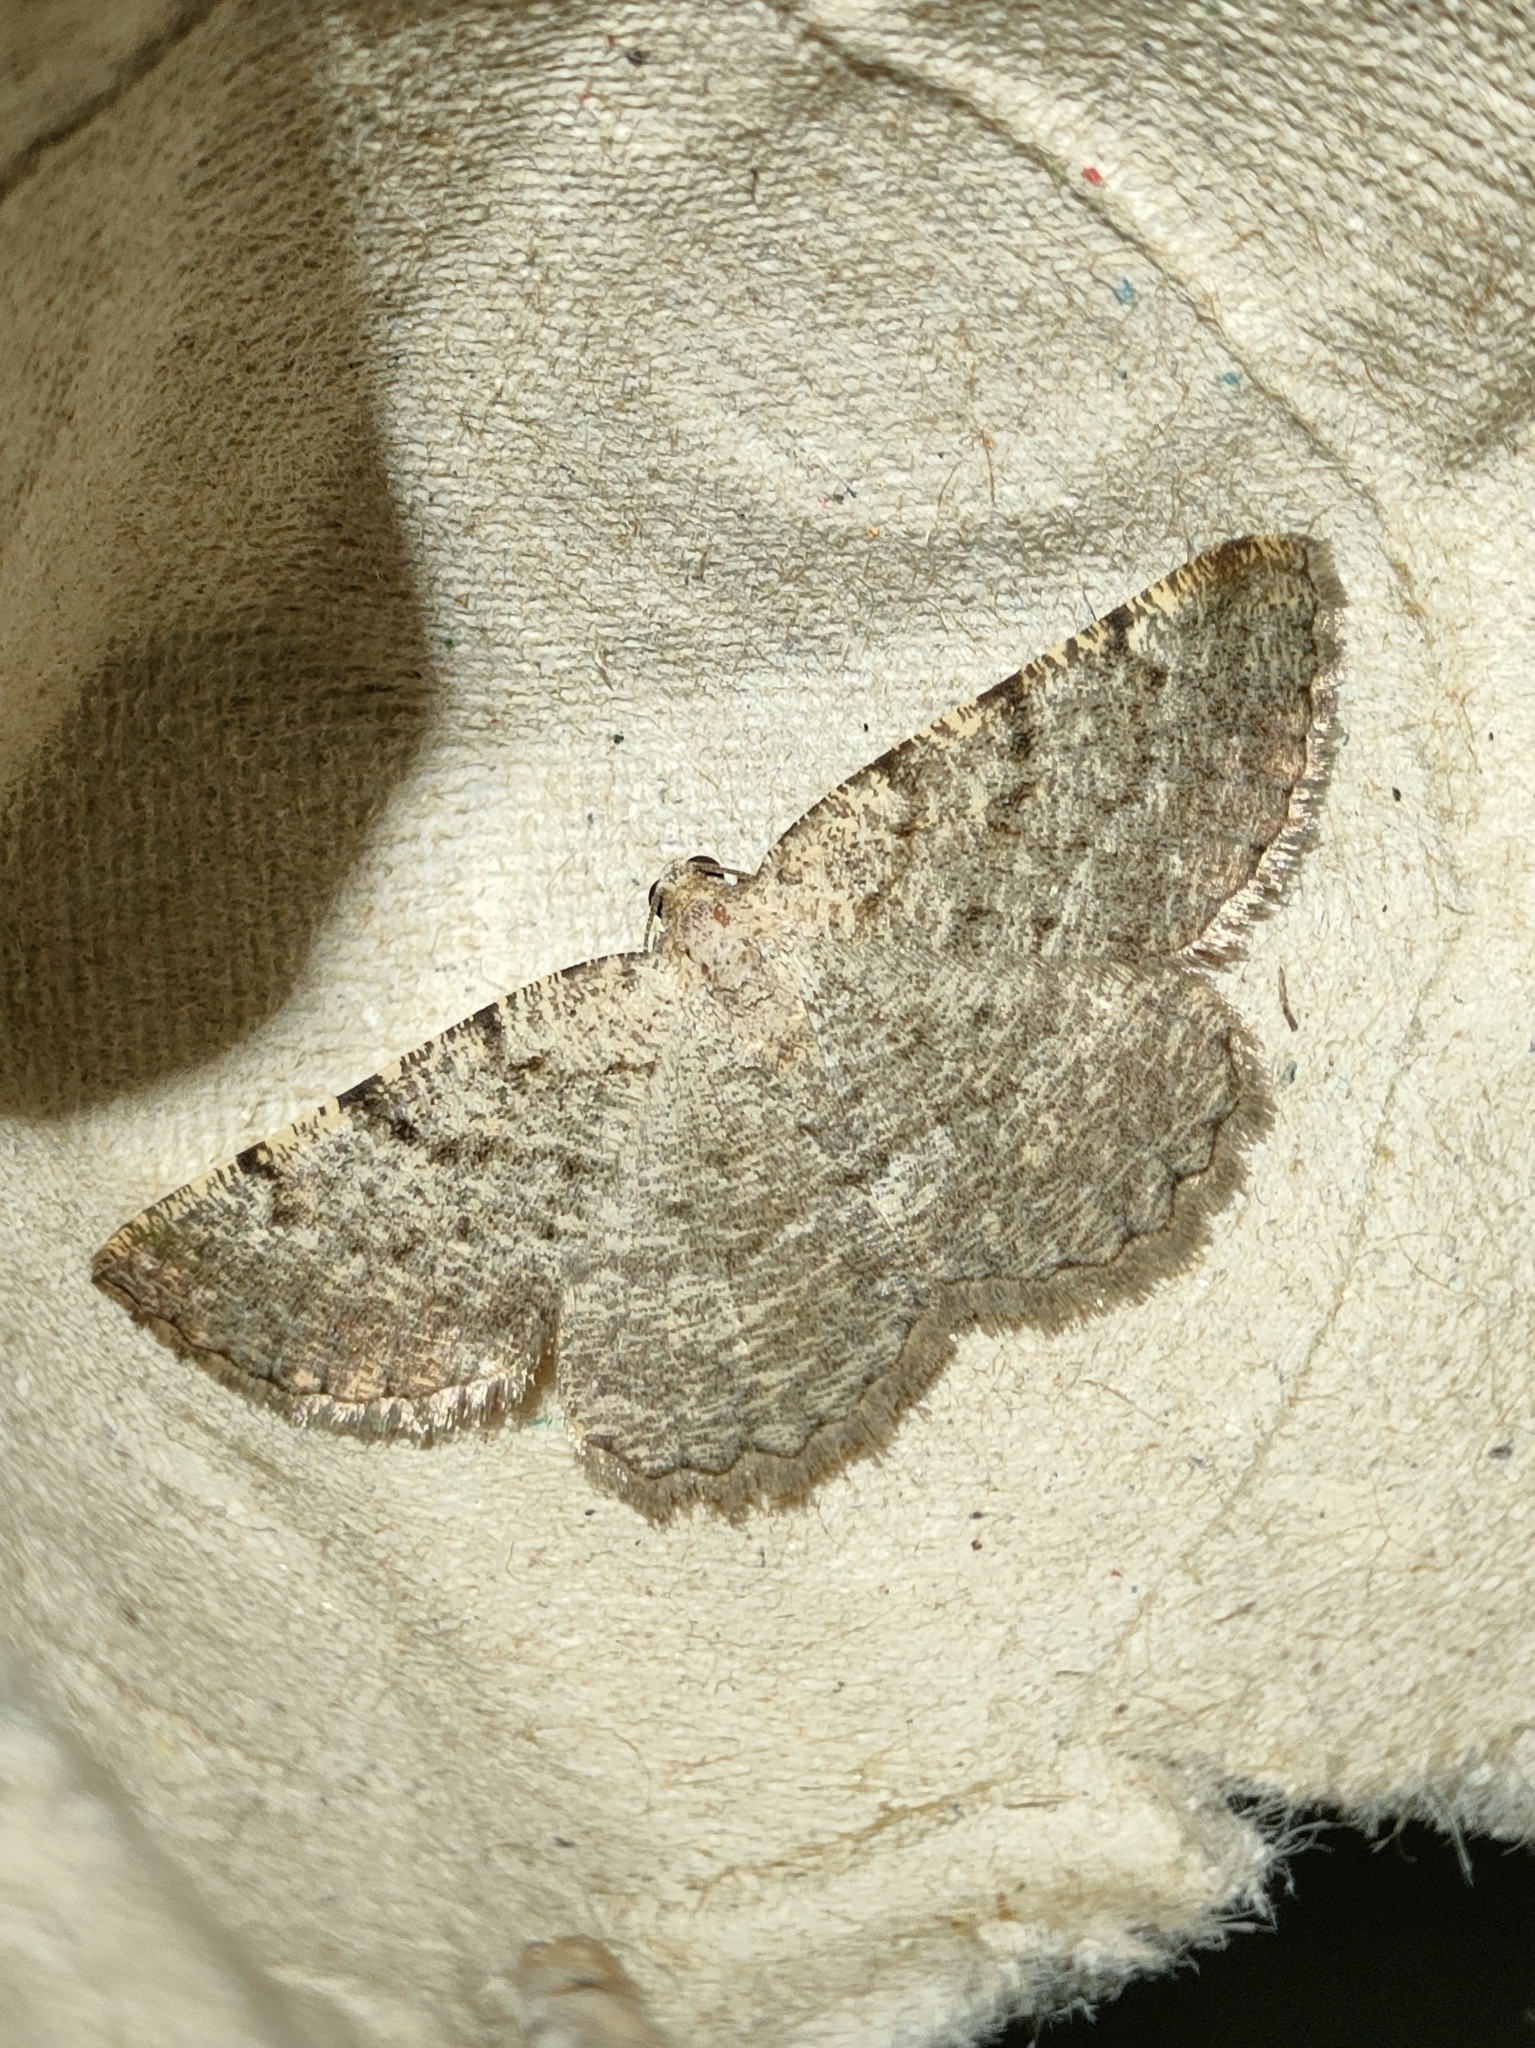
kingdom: Animalia
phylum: Arthropoda
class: Insecta
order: Lepidoptera
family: Geometridae
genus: Ortaliella
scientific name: Ortaliella
